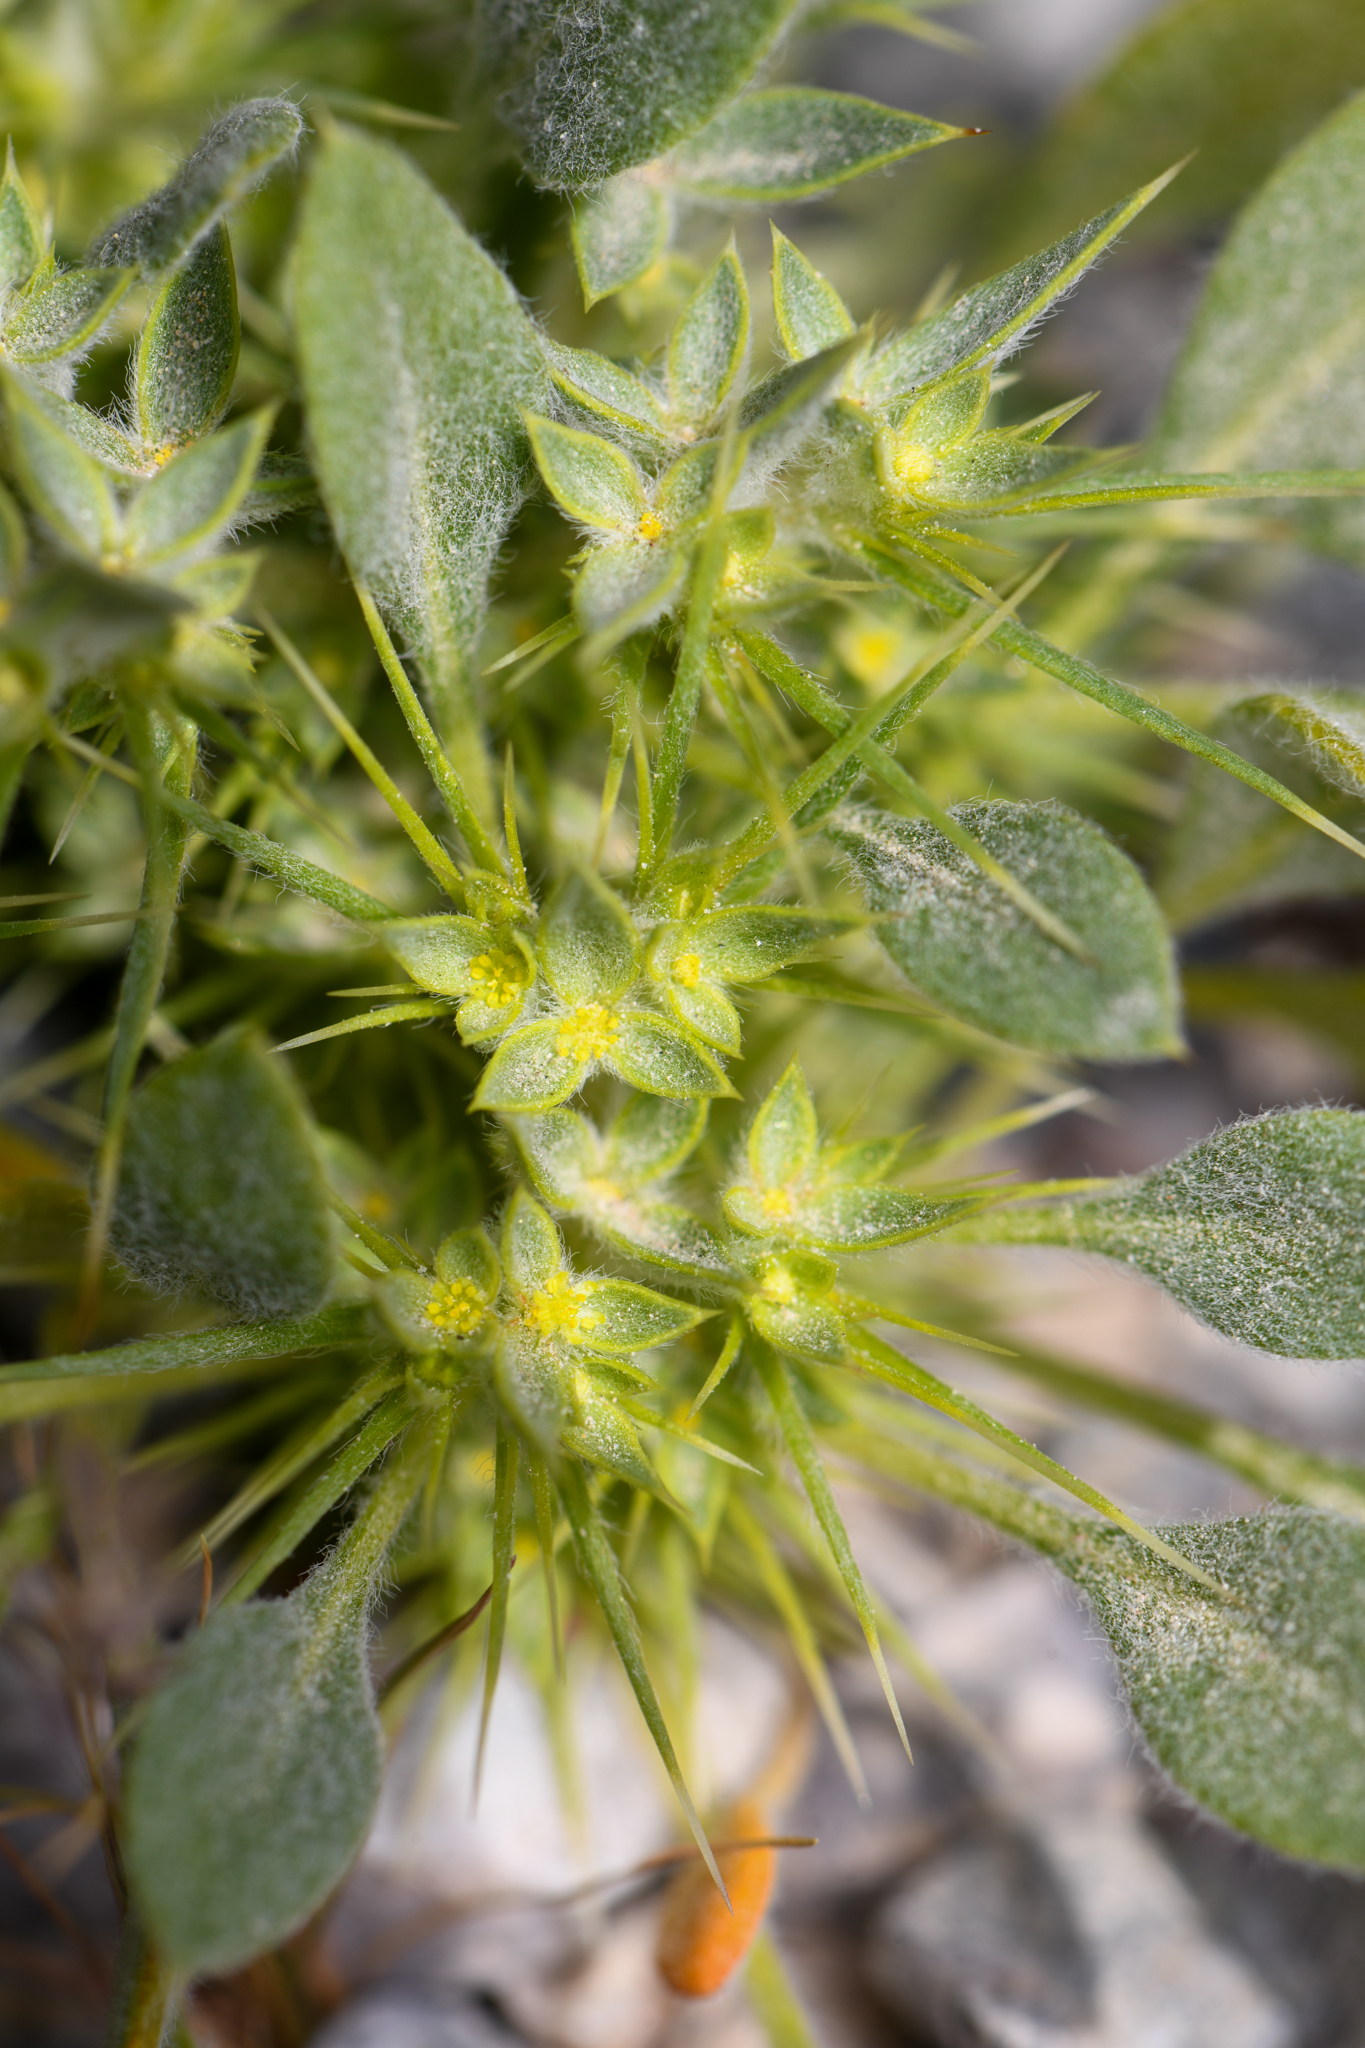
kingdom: Plantae
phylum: Tracheophyta
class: Magnoliopsida
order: Caryophyllales
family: Polygonaceae
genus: Chorizanthe
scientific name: Chorizanthe rigida
